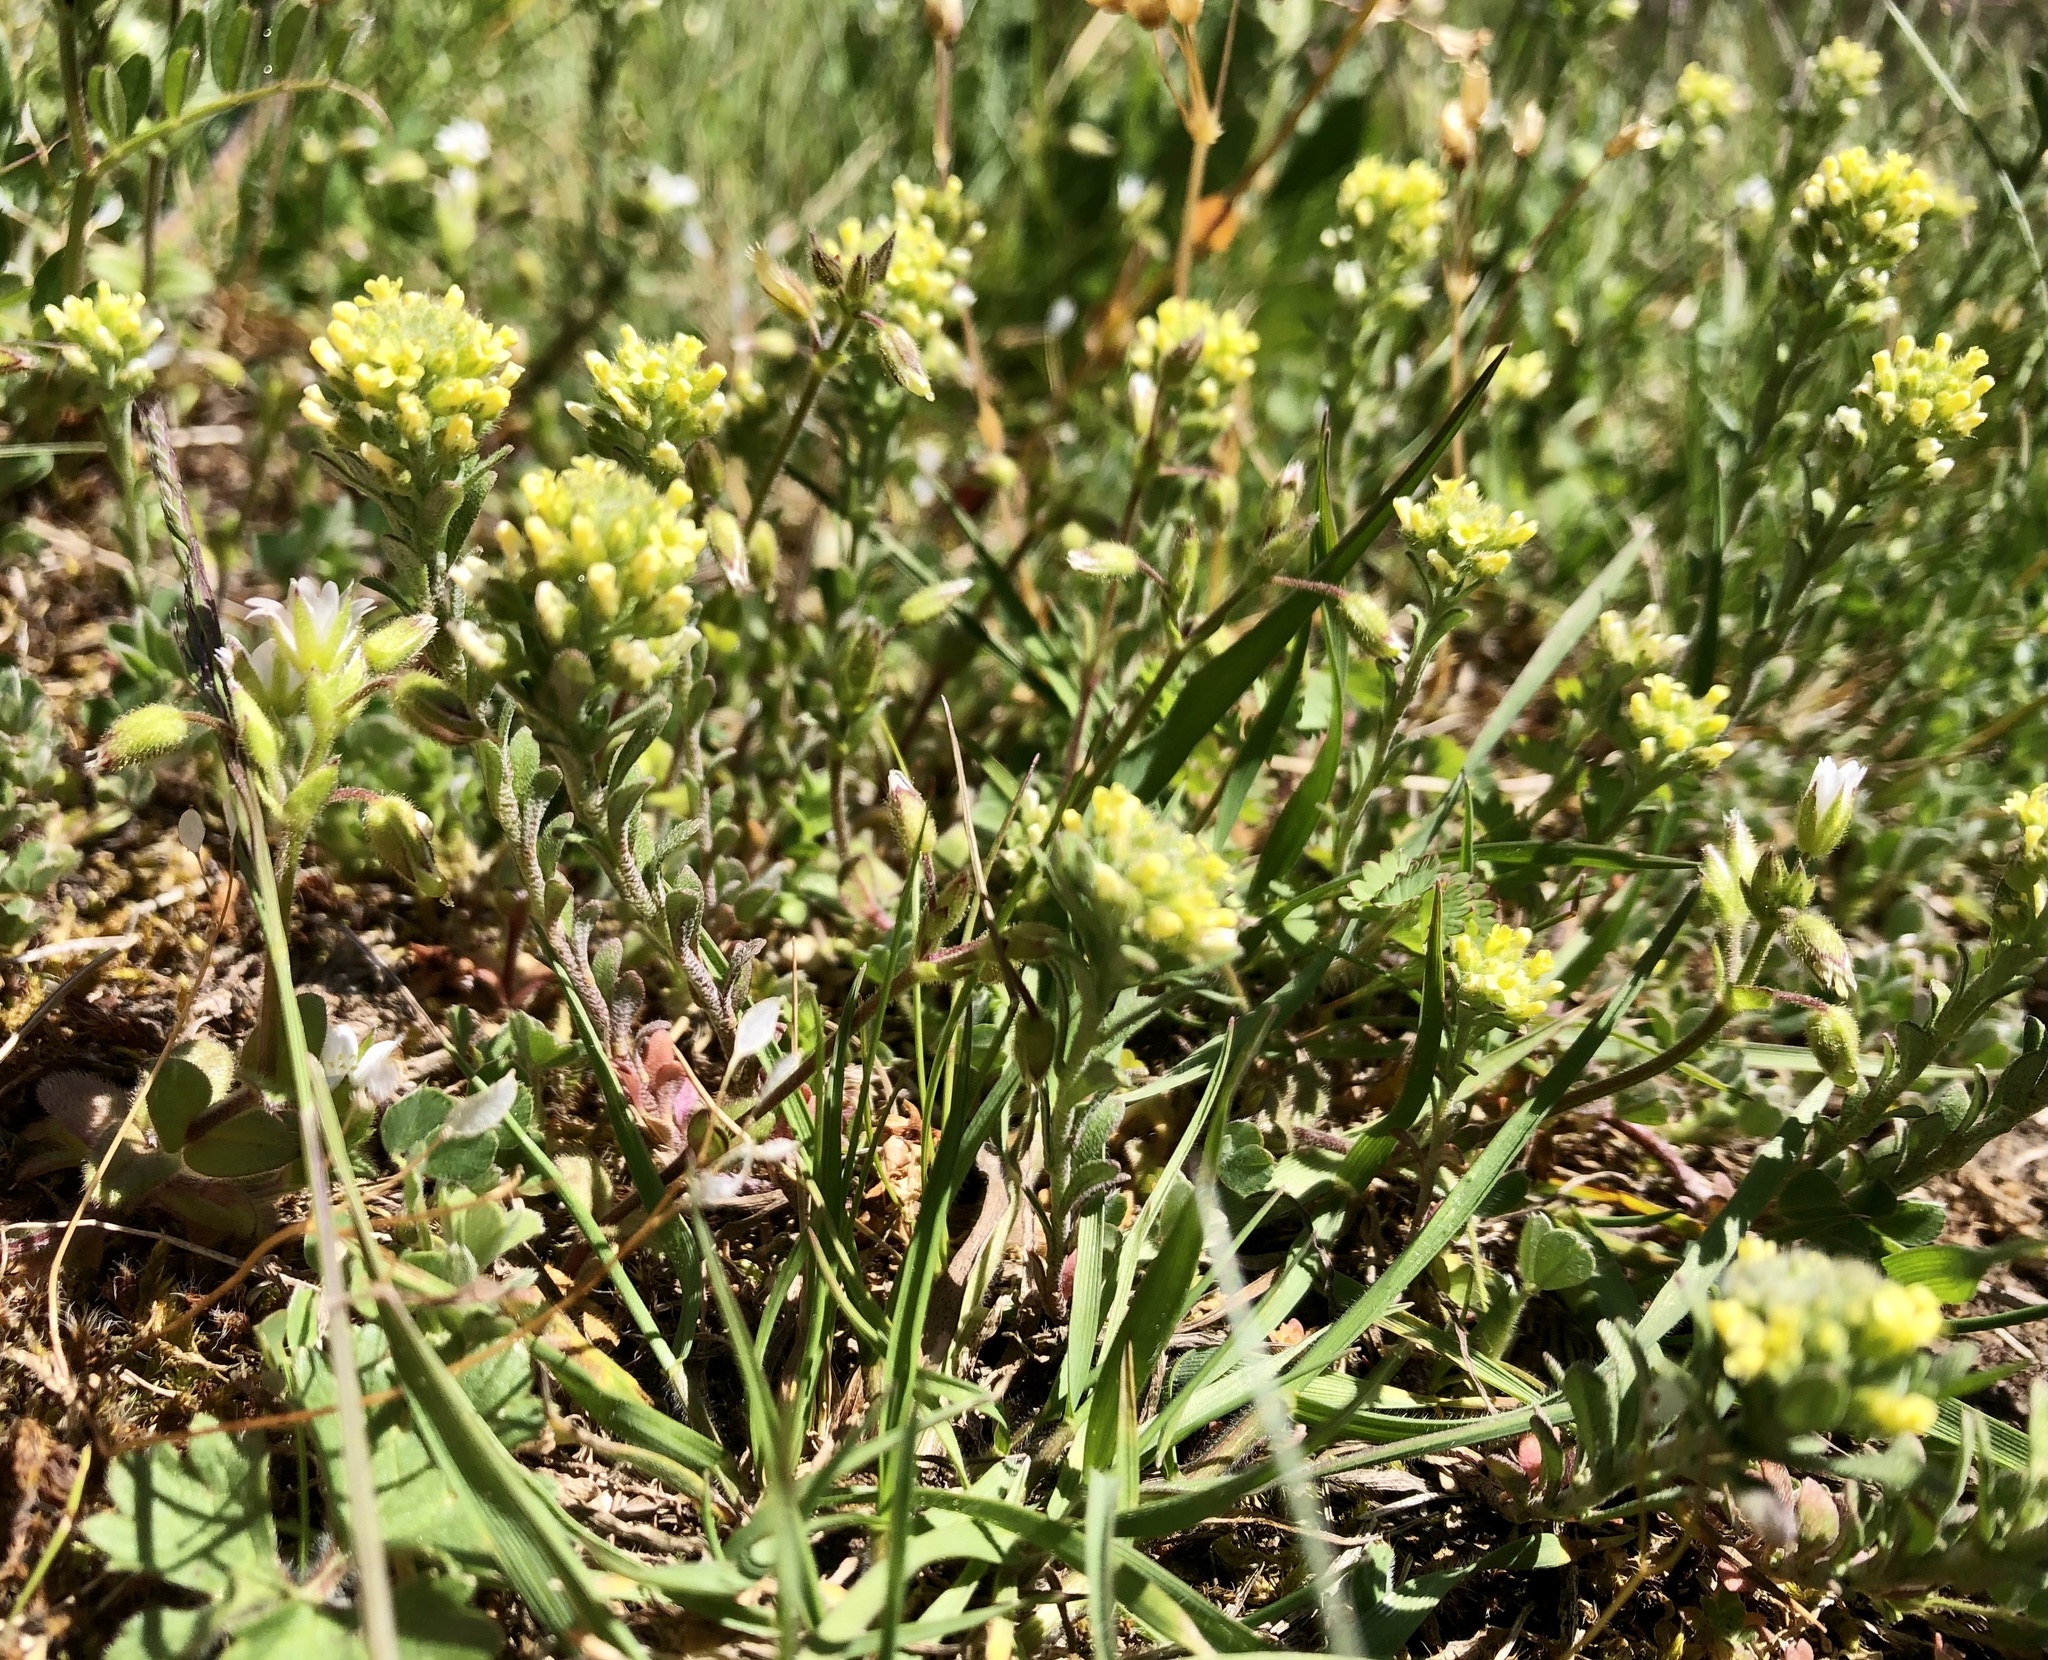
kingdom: Plantae
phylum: Tracheophyta
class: Magnoliopsida
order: Brassicales
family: Brassicaceae
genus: Alyssum
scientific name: Alyssum alyssoides
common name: Small alison
